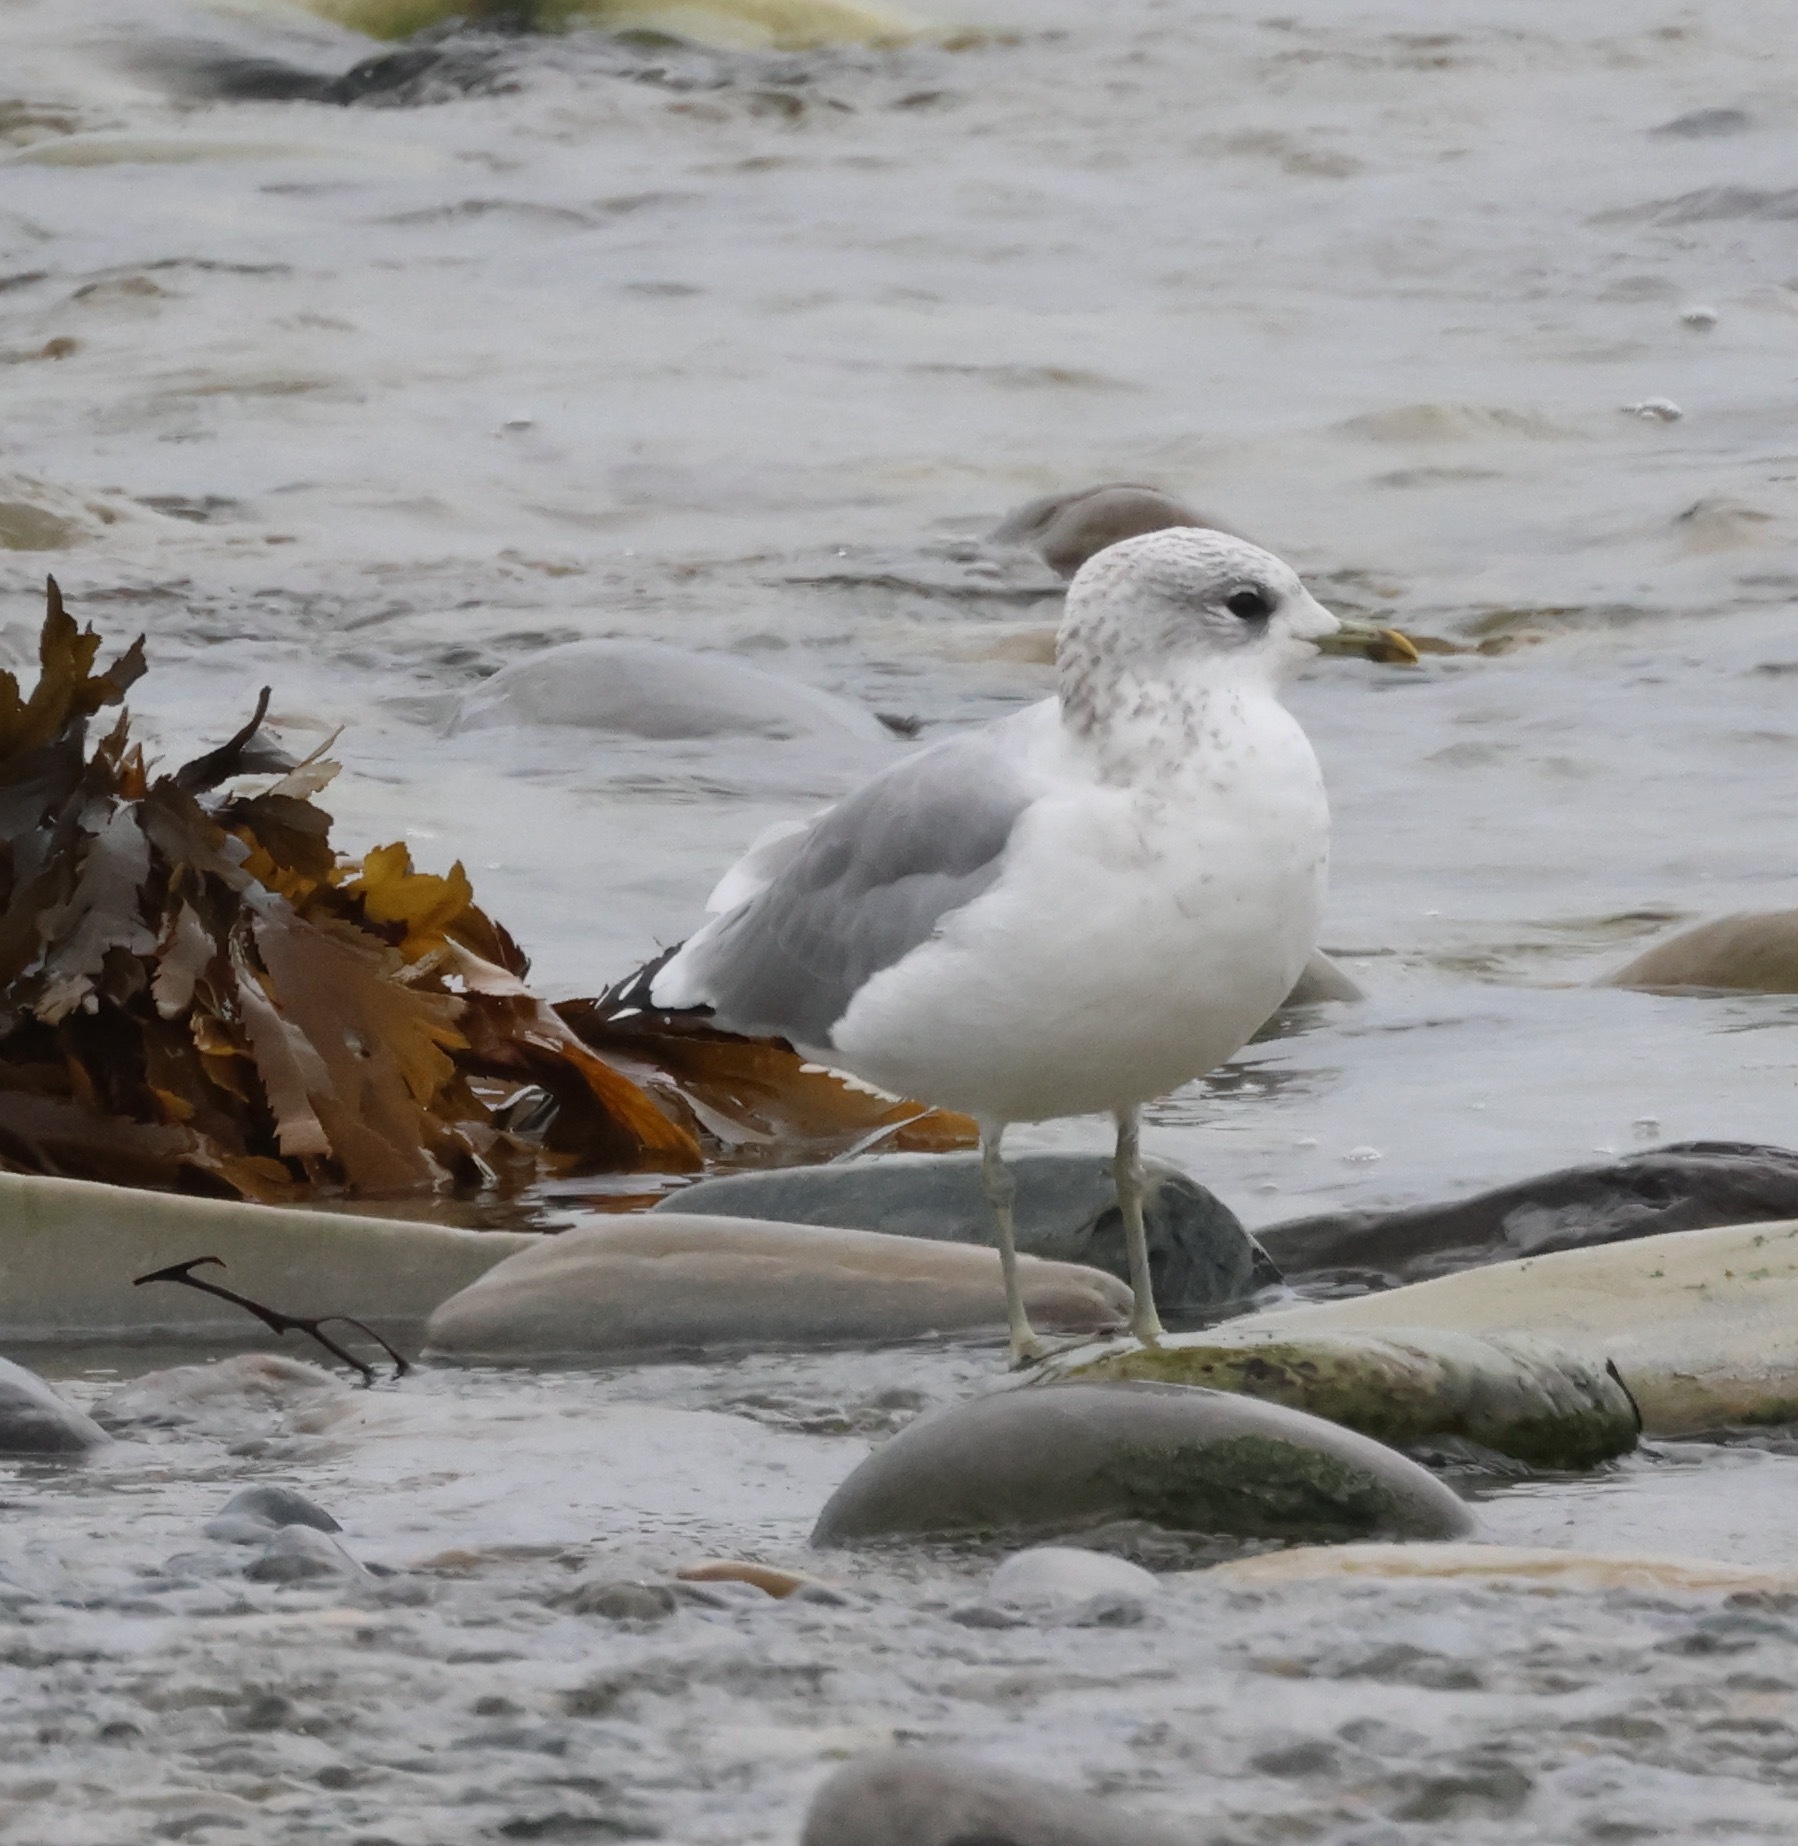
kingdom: Animalia
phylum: Chordata
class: Aves
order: Charadriiformes
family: Laridae
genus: Larus
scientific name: Larus canus
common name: Mew gull
